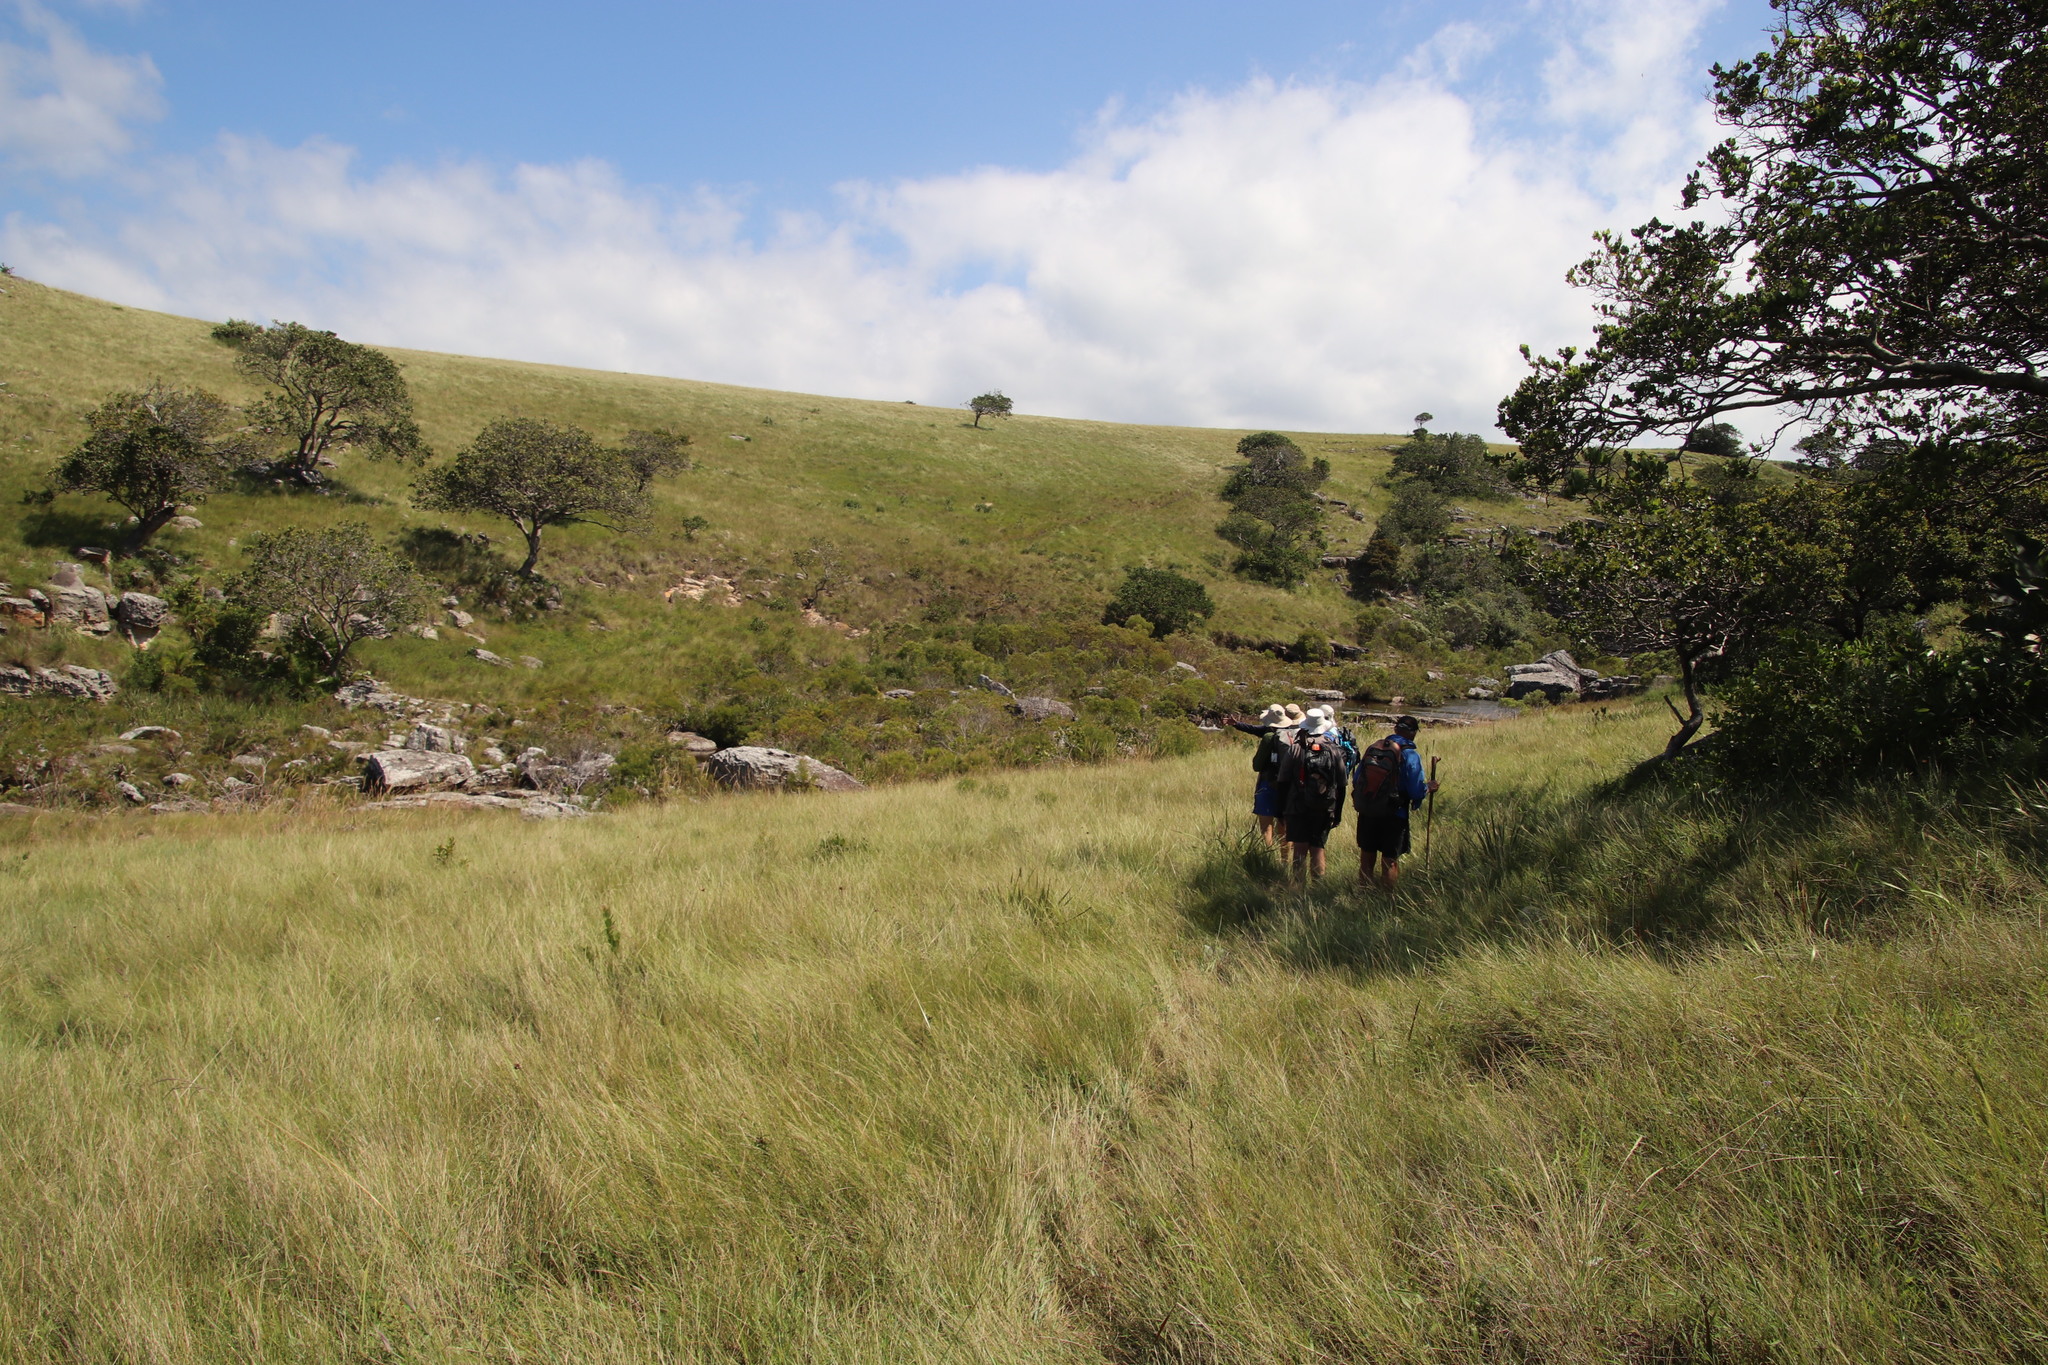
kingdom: Plantae
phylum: Tracheophyta
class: Magnoliopsida
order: Proteales
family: Proteaceae
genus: Leucadendron
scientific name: Leucadendron pondoense
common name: Pondoland conebush
